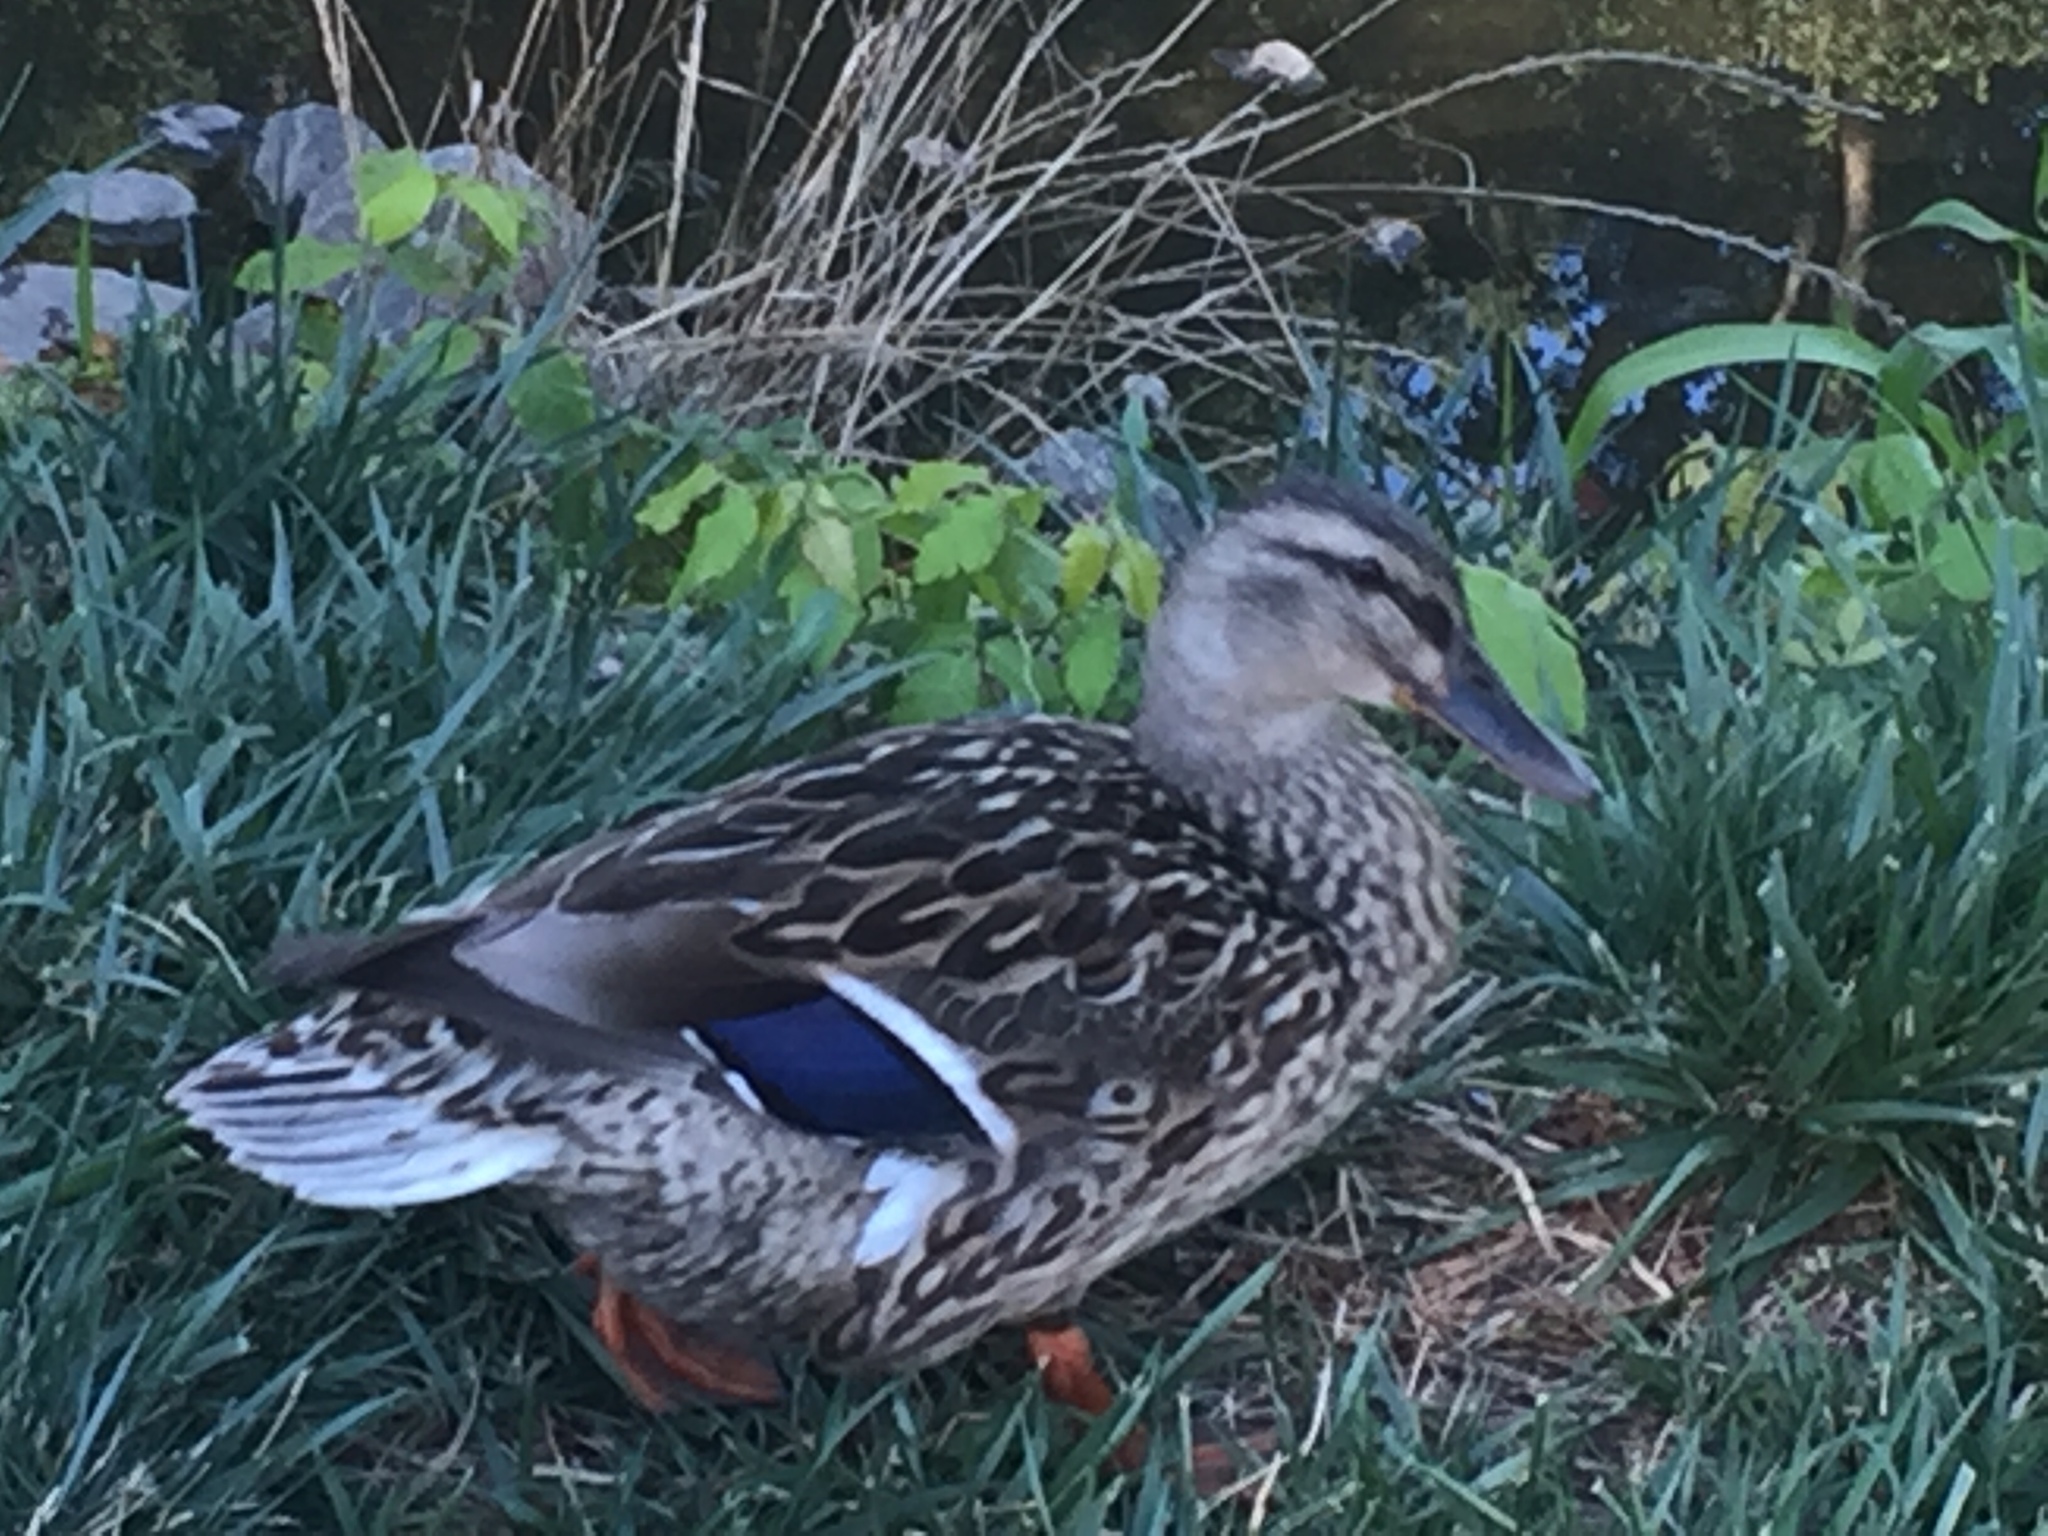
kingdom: Animalia
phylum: Chordata
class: Aves
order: Anseriformes
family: Anatidae
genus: Anas
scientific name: Anas platyrhynchos
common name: Mallard
